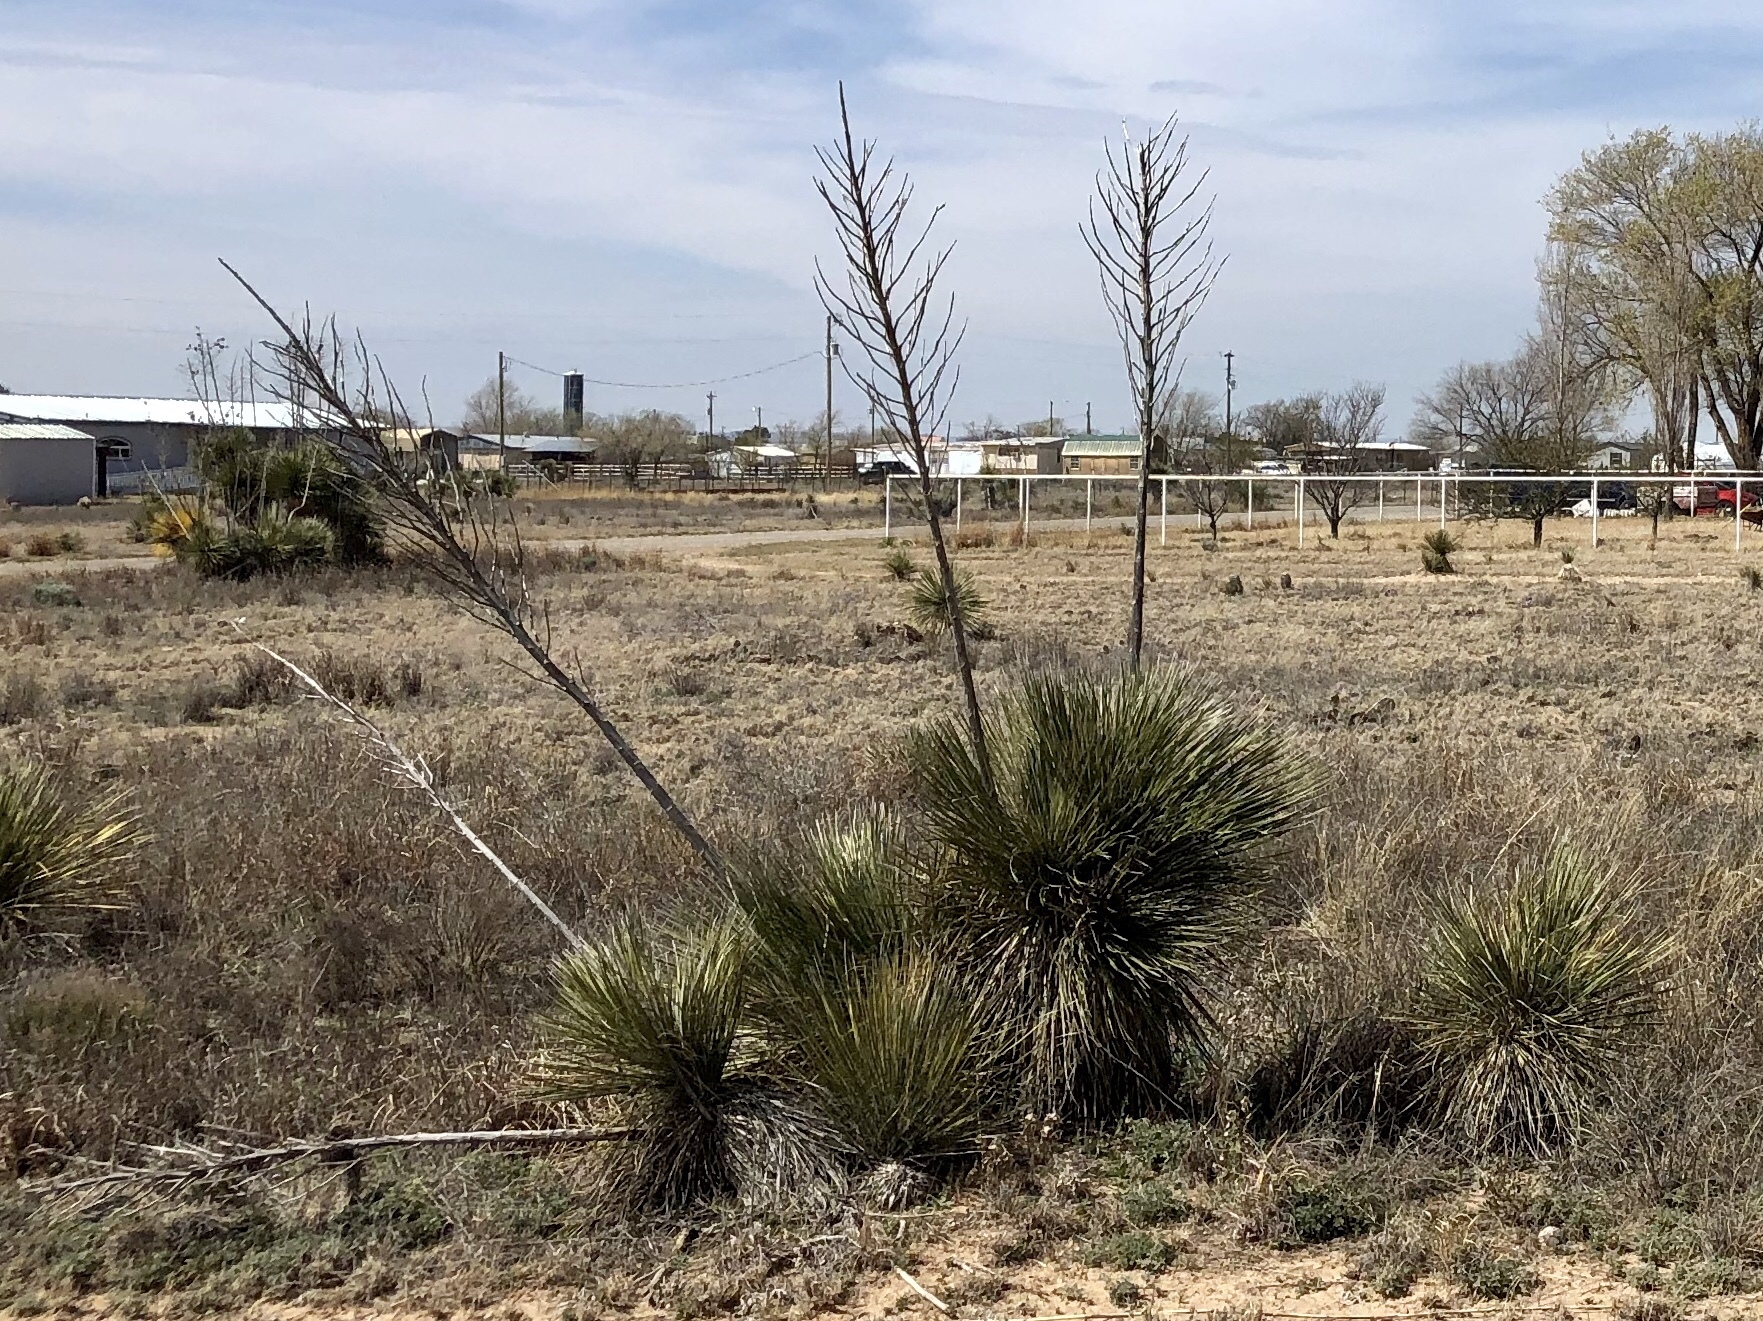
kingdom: Plantae
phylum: Tracheophyta
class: Liliopsida
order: Asparagales
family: Asparagaceae
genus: Yucca
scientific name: Yucca elata
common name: Palmella
